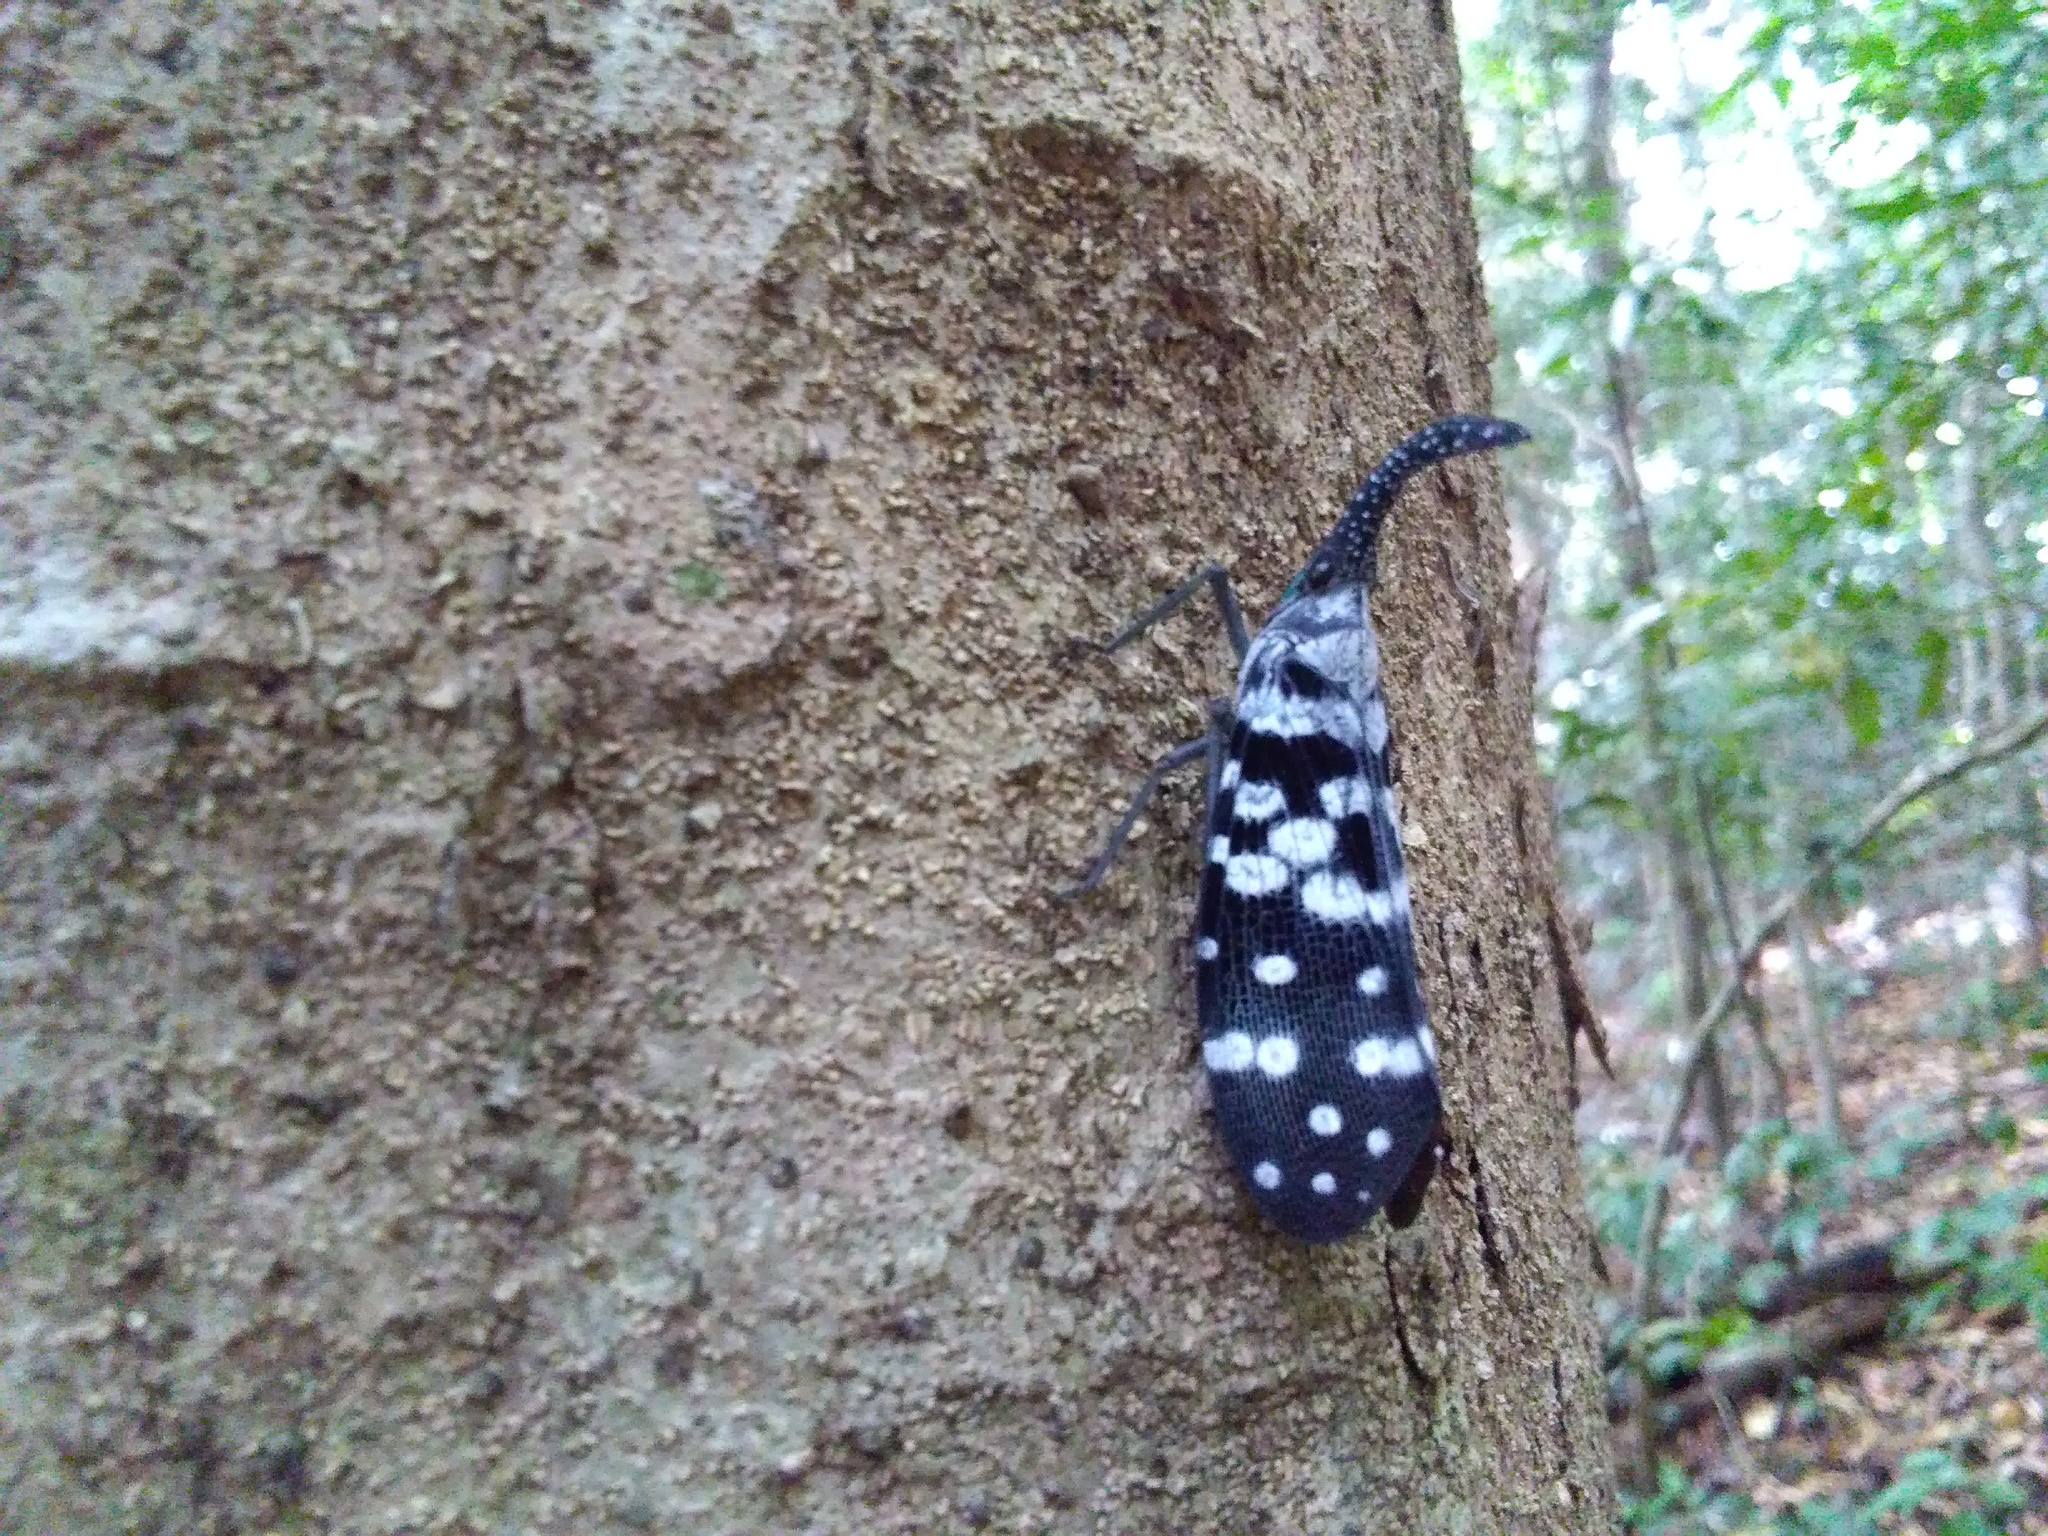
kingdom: Animalia
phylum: Arthropoda
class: Insecta
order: Hemiptera
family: Fulgoridae
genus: Pyrops
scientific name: Pyrops maculatus
